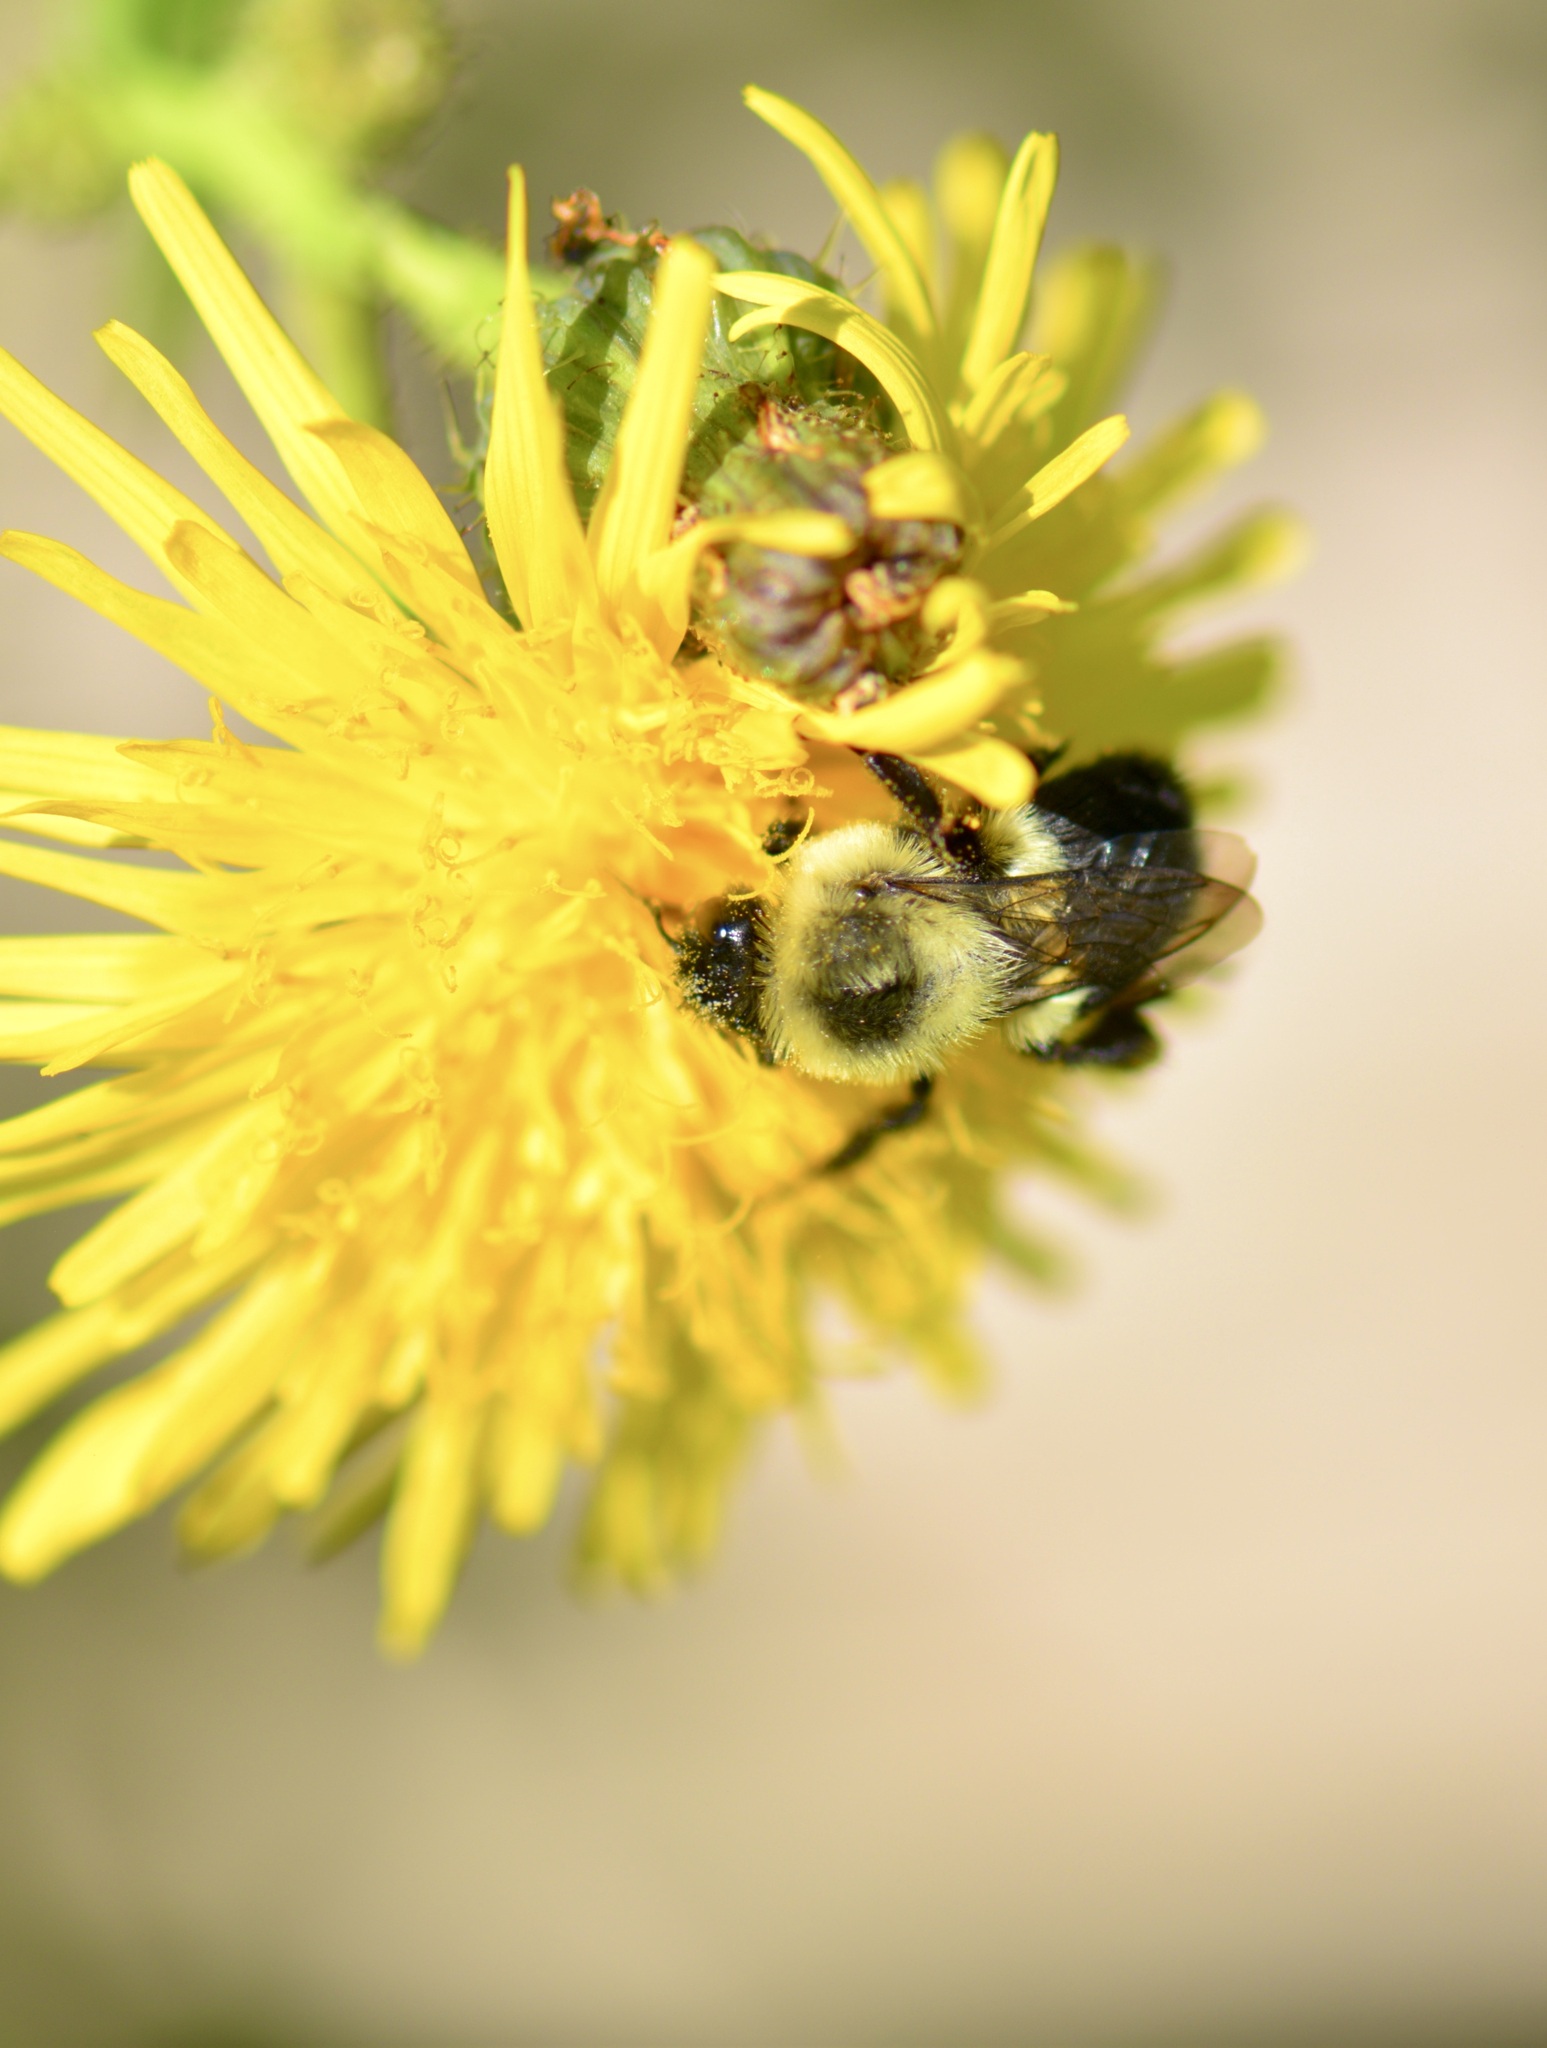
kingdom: Animalia
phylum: Arthropoda
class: Insecta
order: Hymenoptera
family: Apidae
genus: Bombus
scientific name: Bombus impatiens
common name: Common eastern bumble bee
